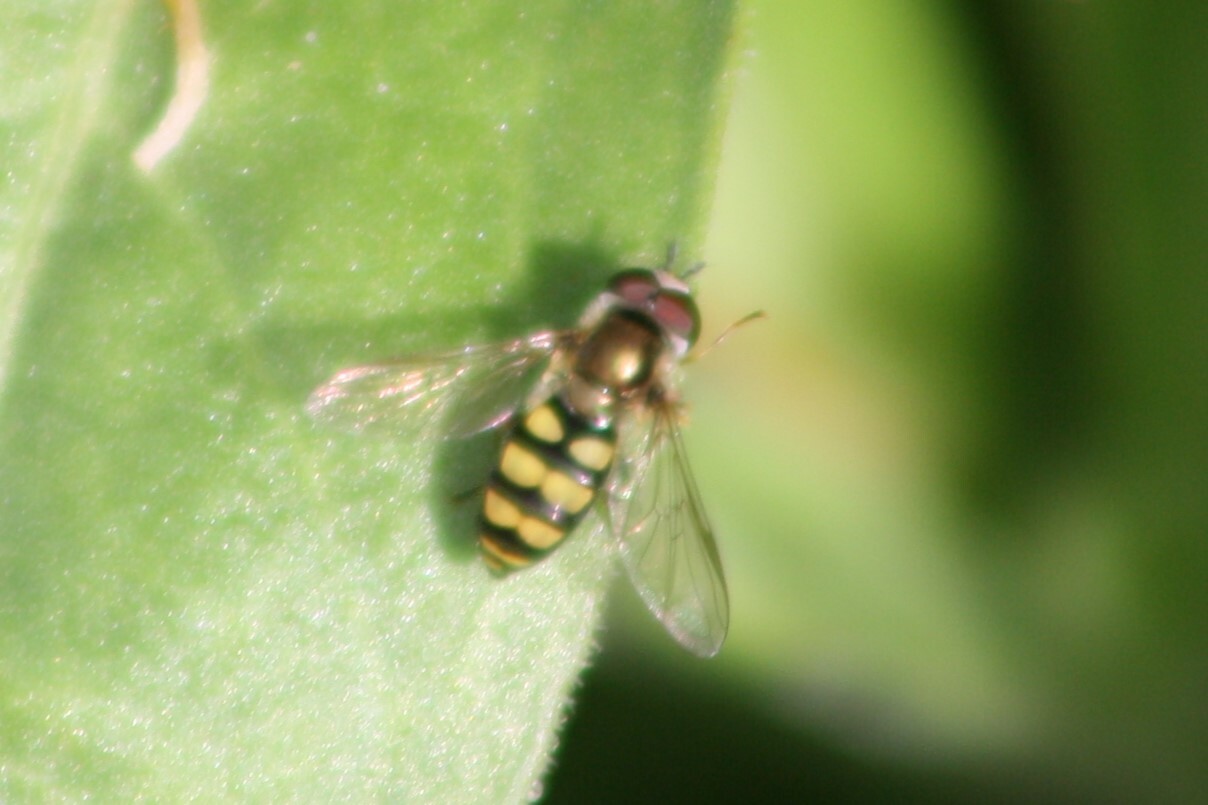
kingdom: Animalia
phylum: Arthropoda
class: Insecta
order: Diptera
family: Syrphidae
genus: Eupeodes
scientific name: Eupeodes
